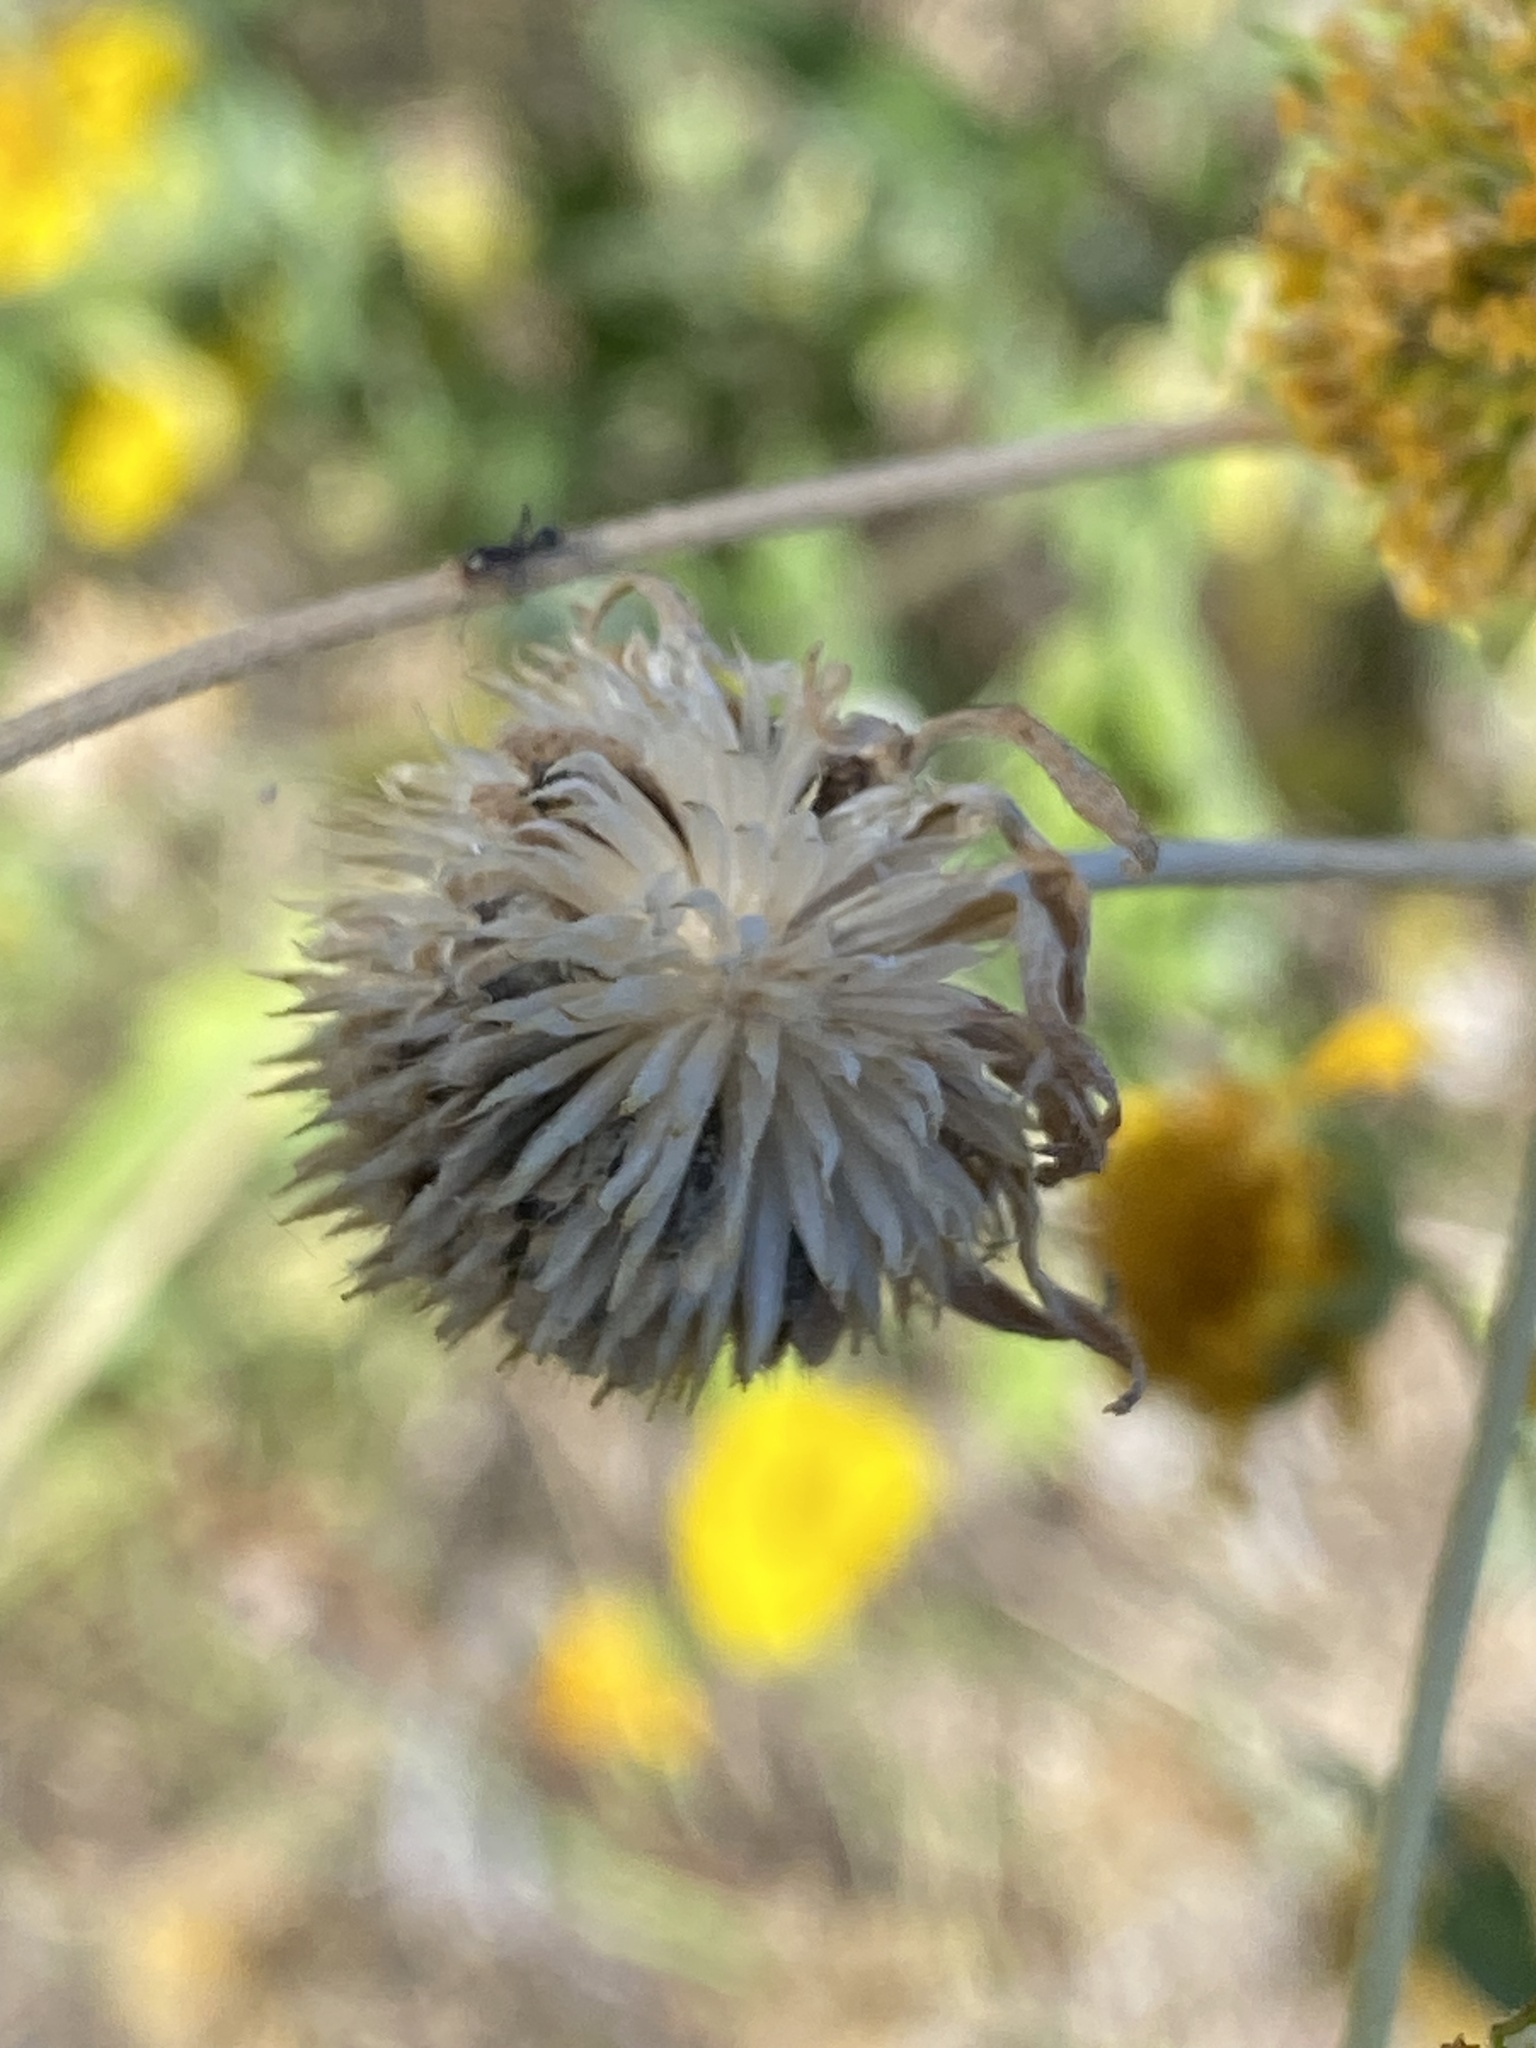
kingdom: Plantae
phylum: Tracheophyta
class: Magnoliopsida
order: Asterales
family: Asteraceae
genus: Verbesina
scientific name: Verbesina encelioides
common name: Golden crownbeard
